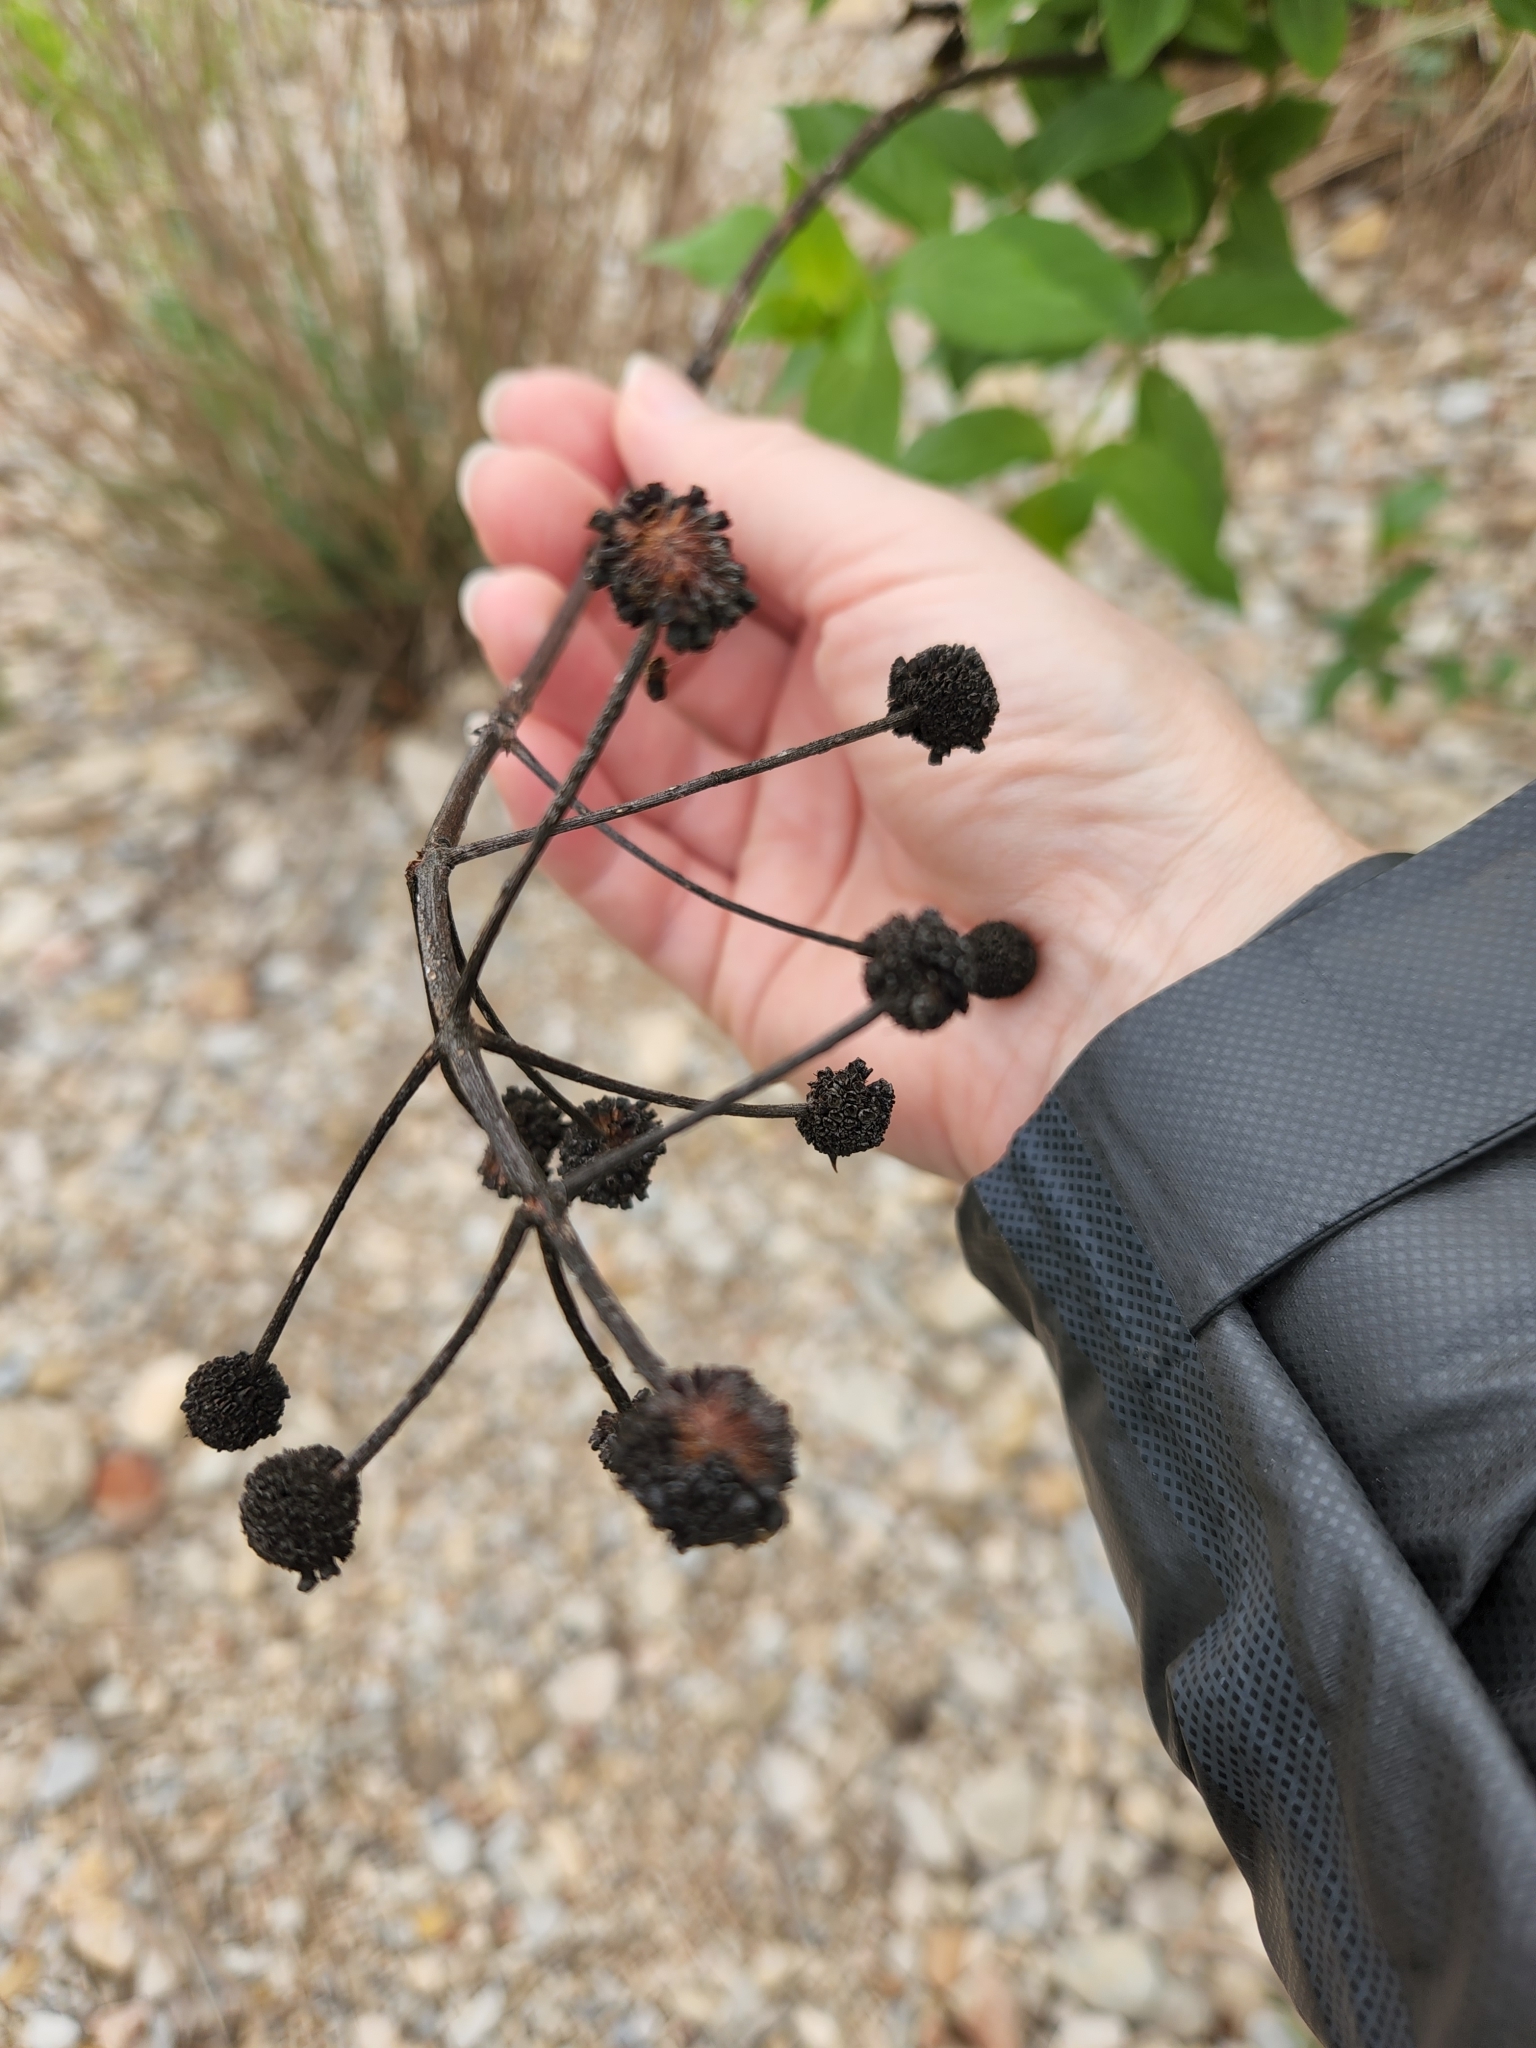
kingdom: Plantae
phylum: Tracheophyta
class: Magnoliopsida
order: Gentianales
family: Rubiaceae
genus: Cephalanthus
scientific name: Cephalanthus occidentalis
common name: Button-willow
